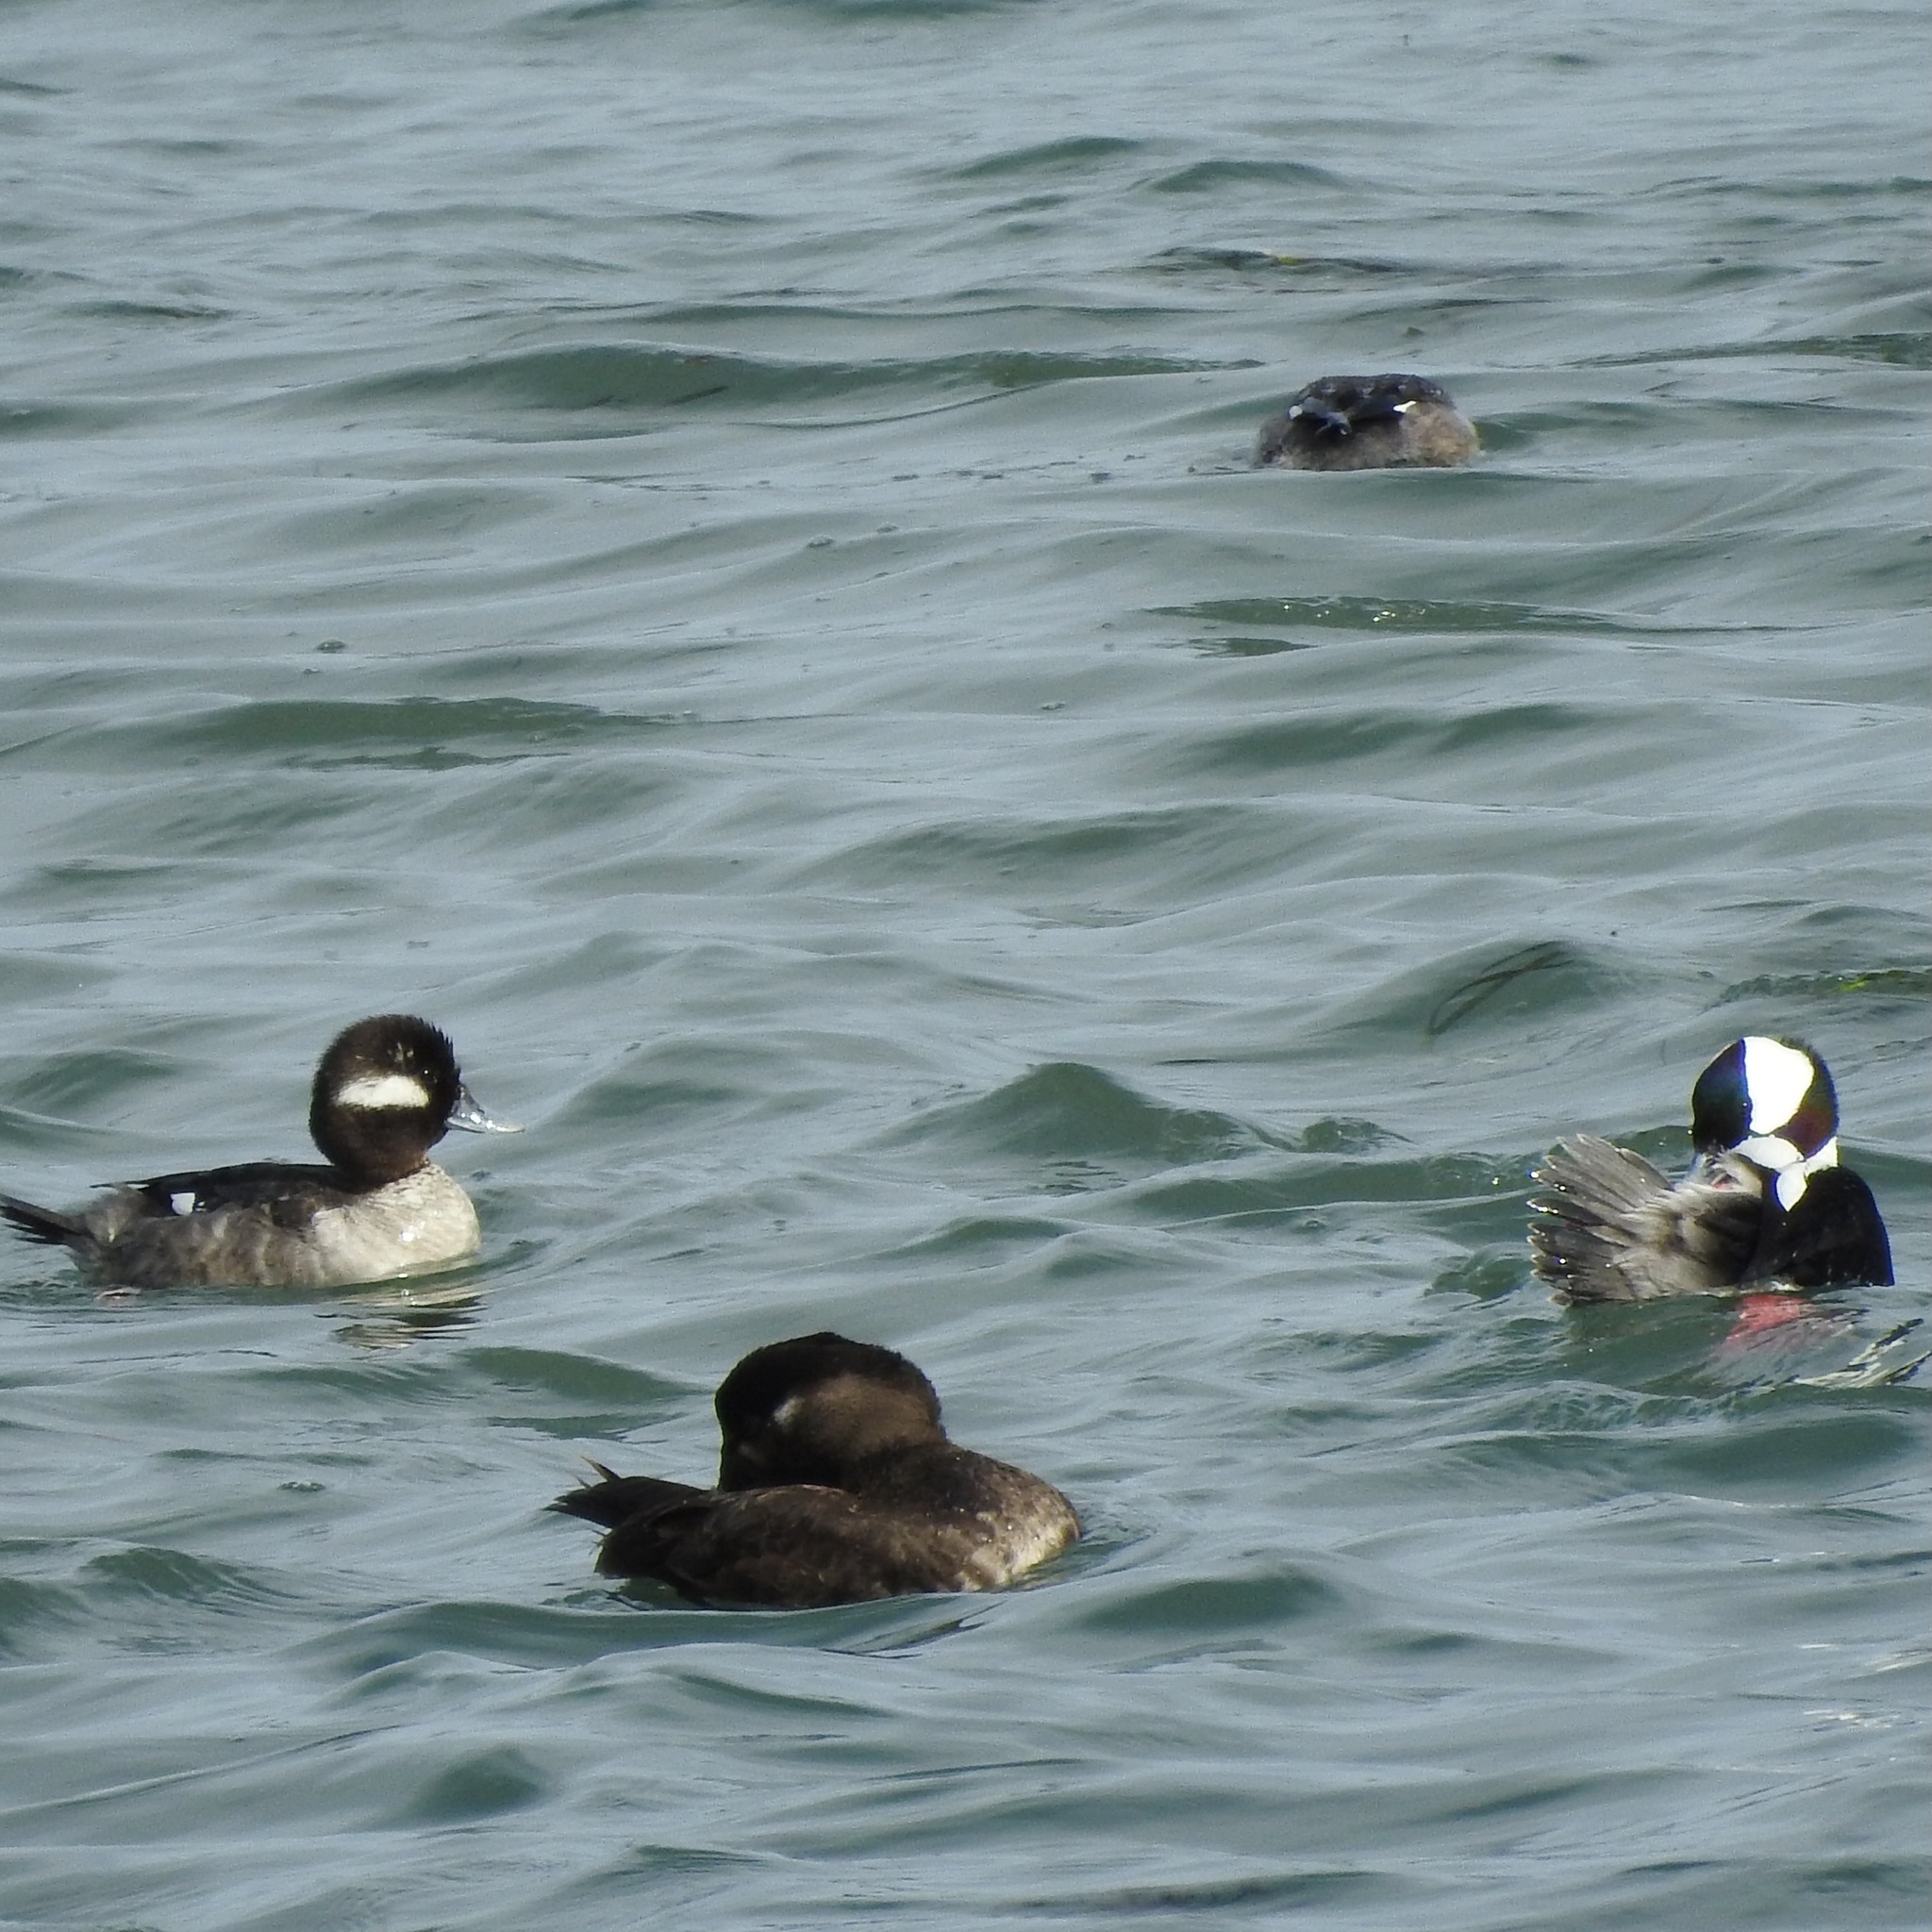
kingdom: Animalia
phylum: Chordata
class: Aves
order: Anseriformes
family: Anatidae
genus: Bucephala
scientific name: Bucephala albeola
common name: Bufflehead
